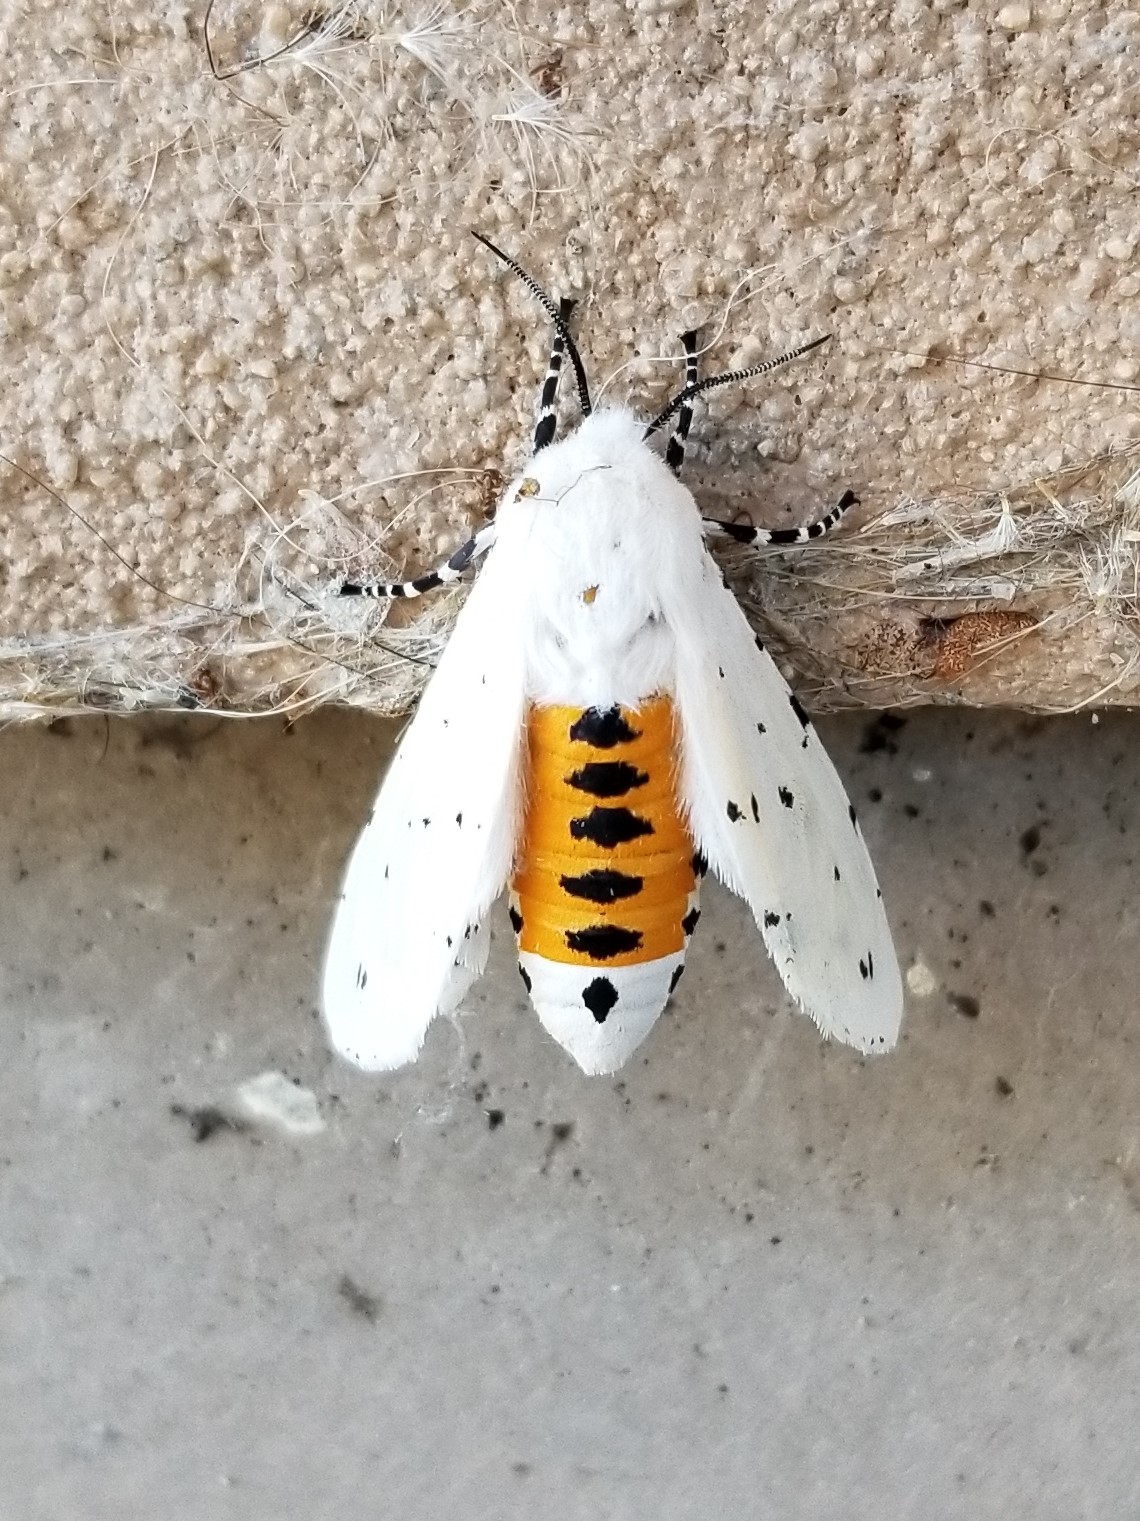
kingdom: Animalia
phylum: Arthropoda
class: Insecta
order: Lepidoptera
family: Erebidae
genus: Estigmene
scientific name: Estigmene acrea
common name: Salt marsh moth
